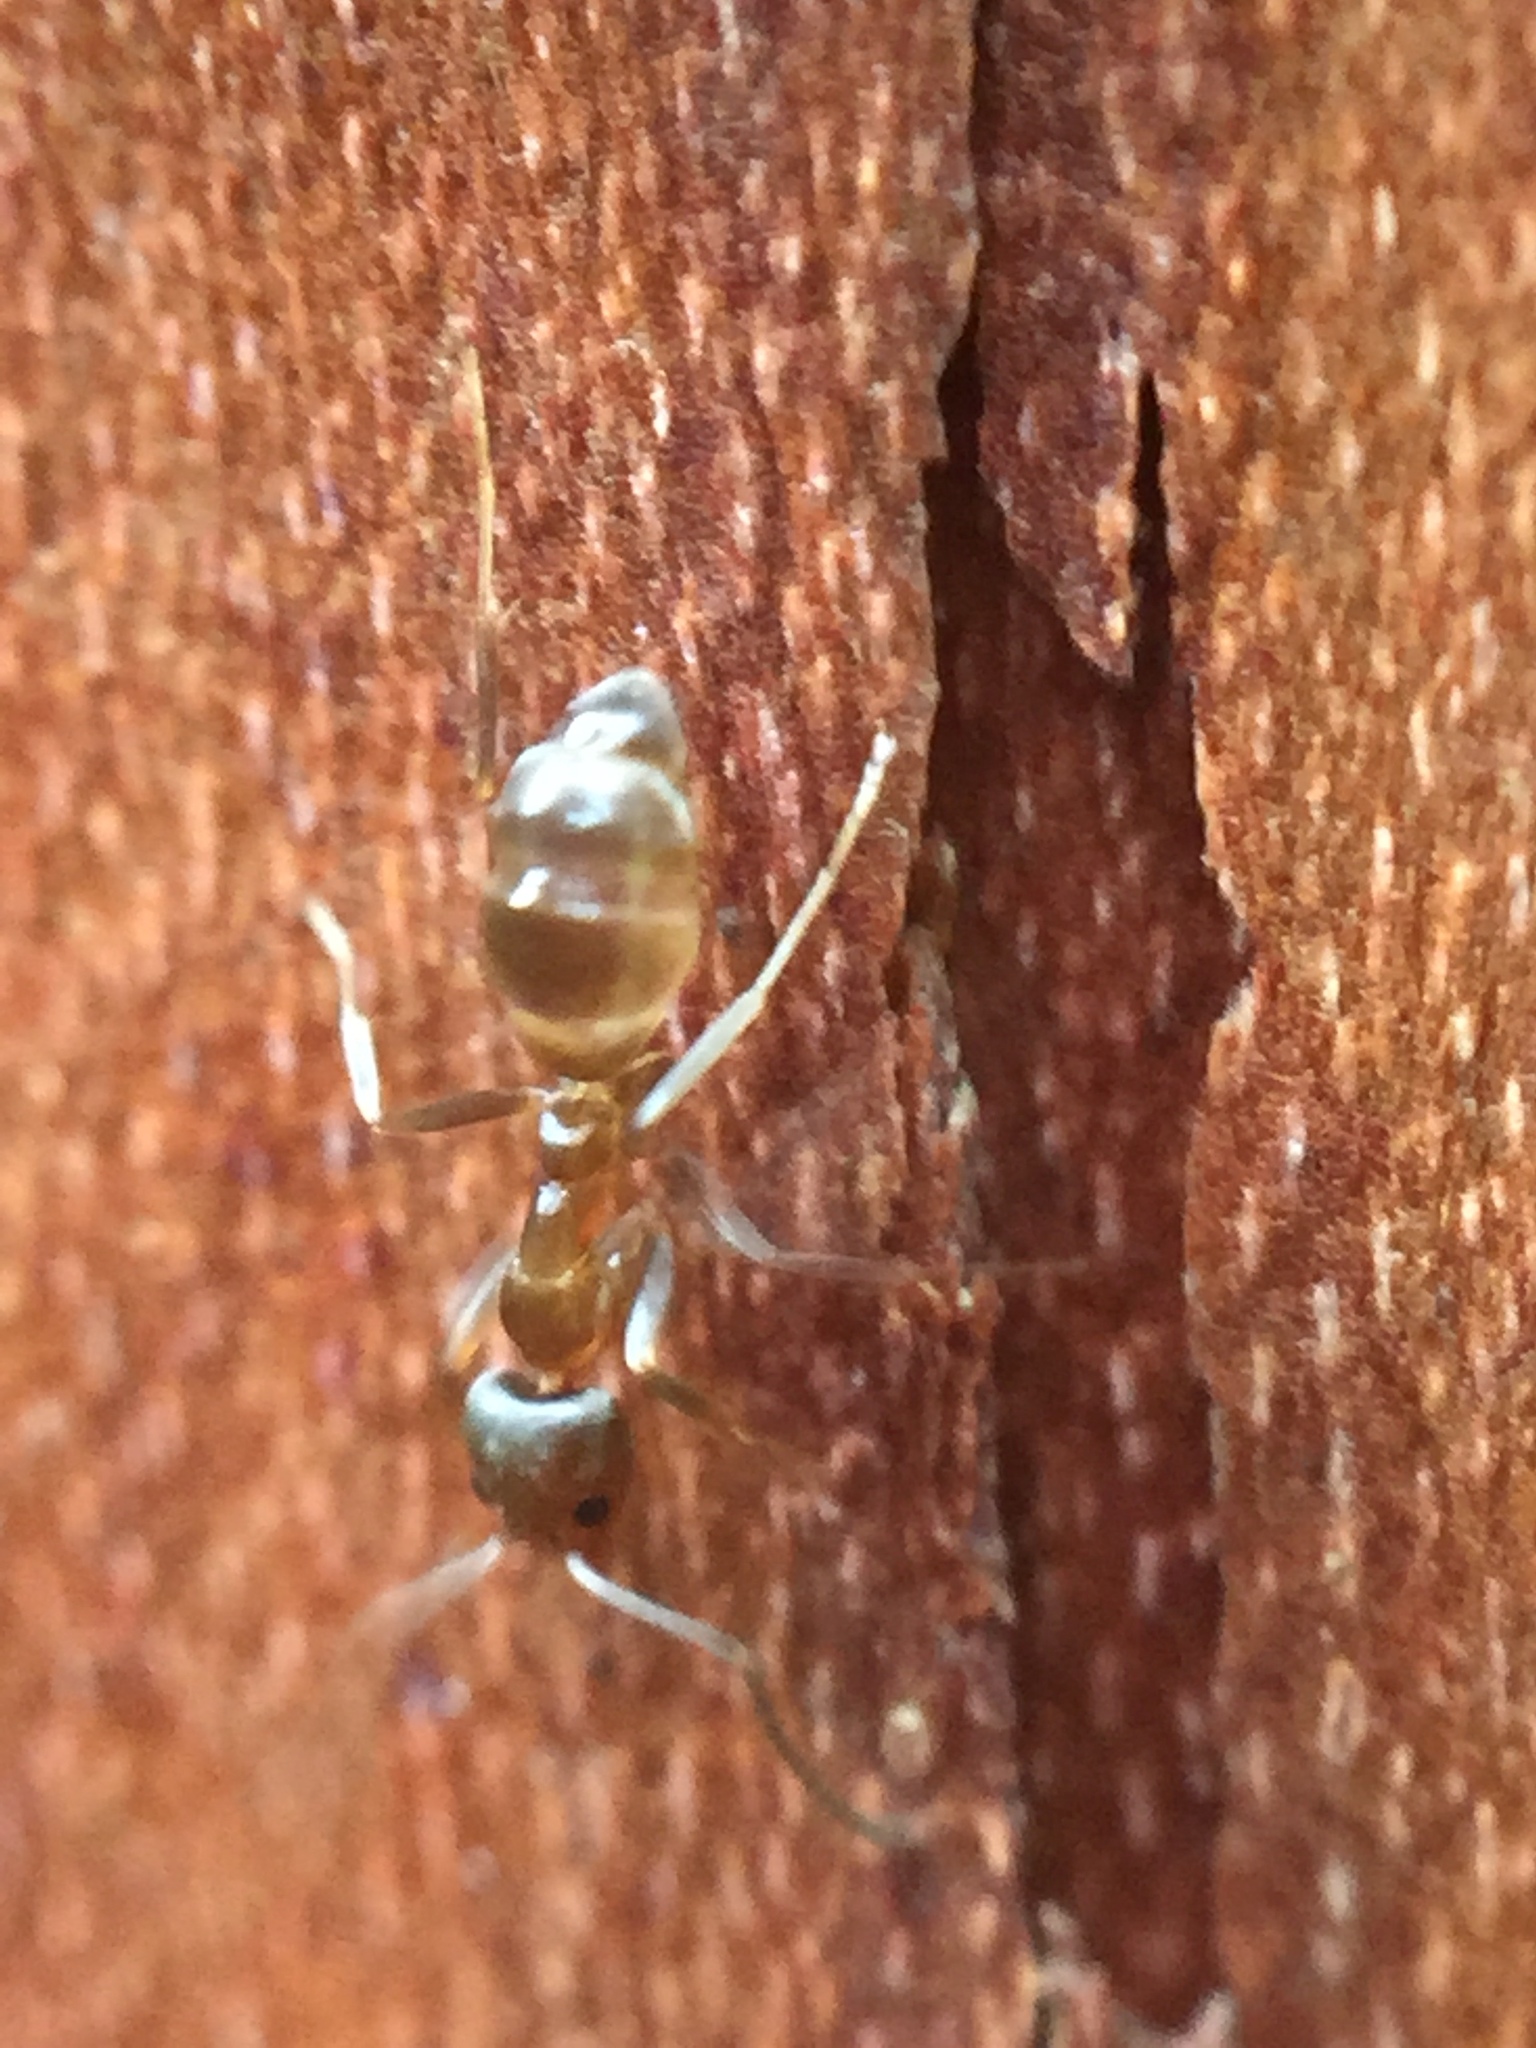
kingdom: Animalia
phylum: Arthropoda
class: Insecta
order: Hymenoptera
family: Formicidae
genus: Linepithema
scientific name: Linepithema humile
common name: Argentine ant
